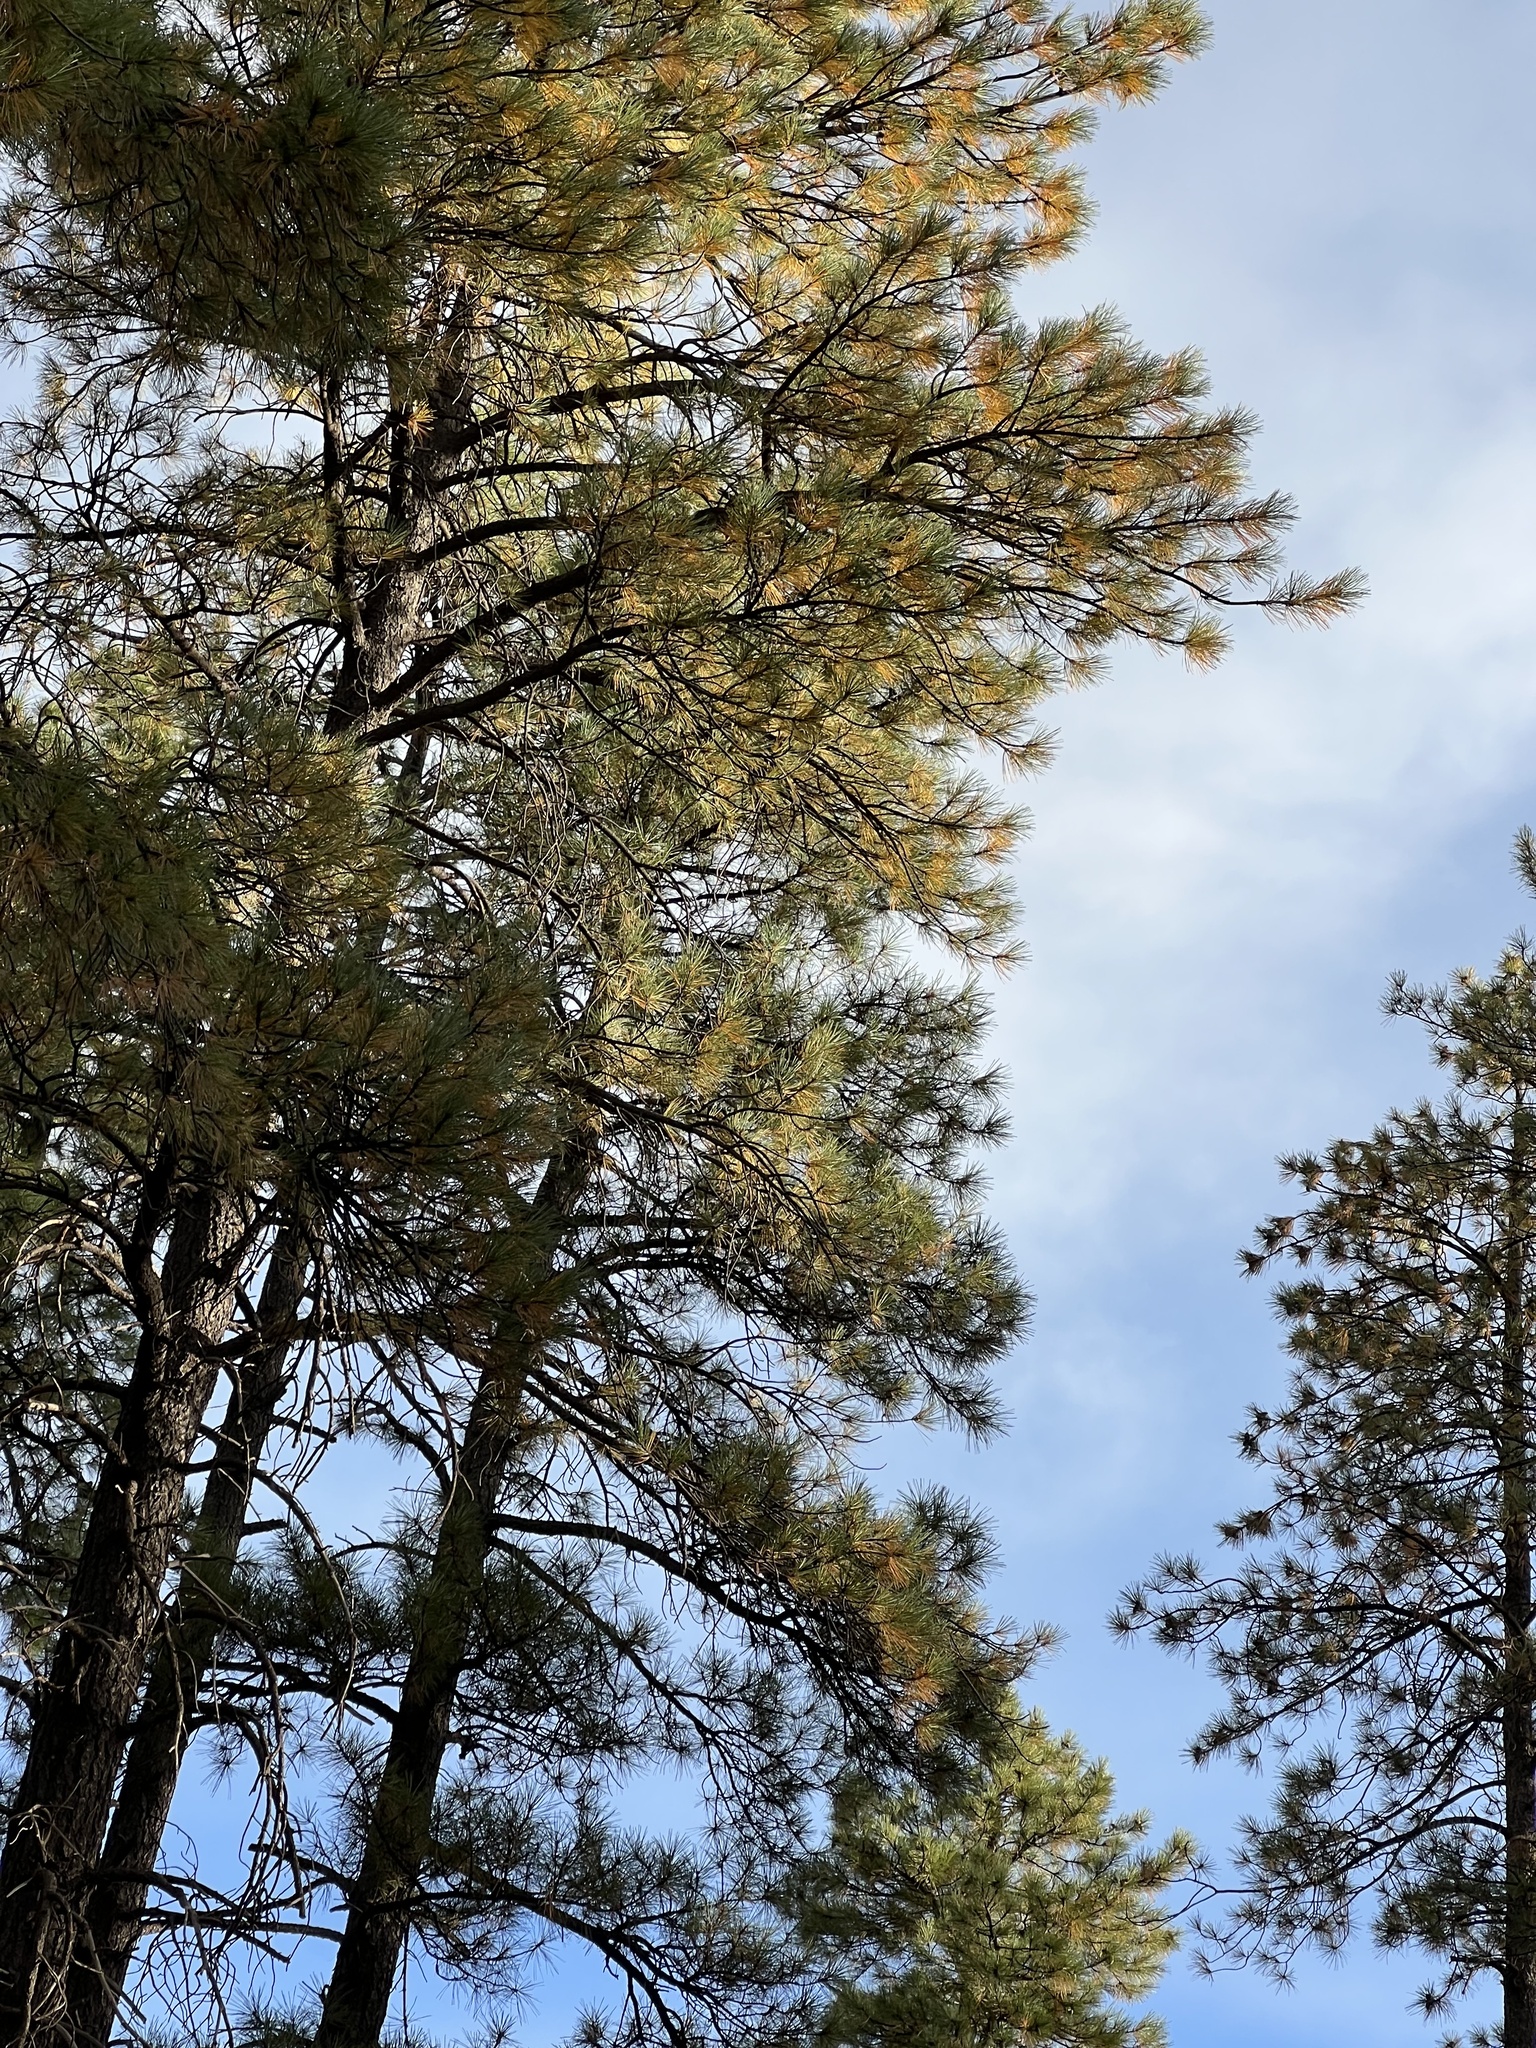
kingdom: Plantae
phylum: Tracheophyta
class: Pinopsida
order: Pinales
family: Pinaceae
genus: Pinus
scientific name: Pinus ponderosa
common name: Western yellow-pine
